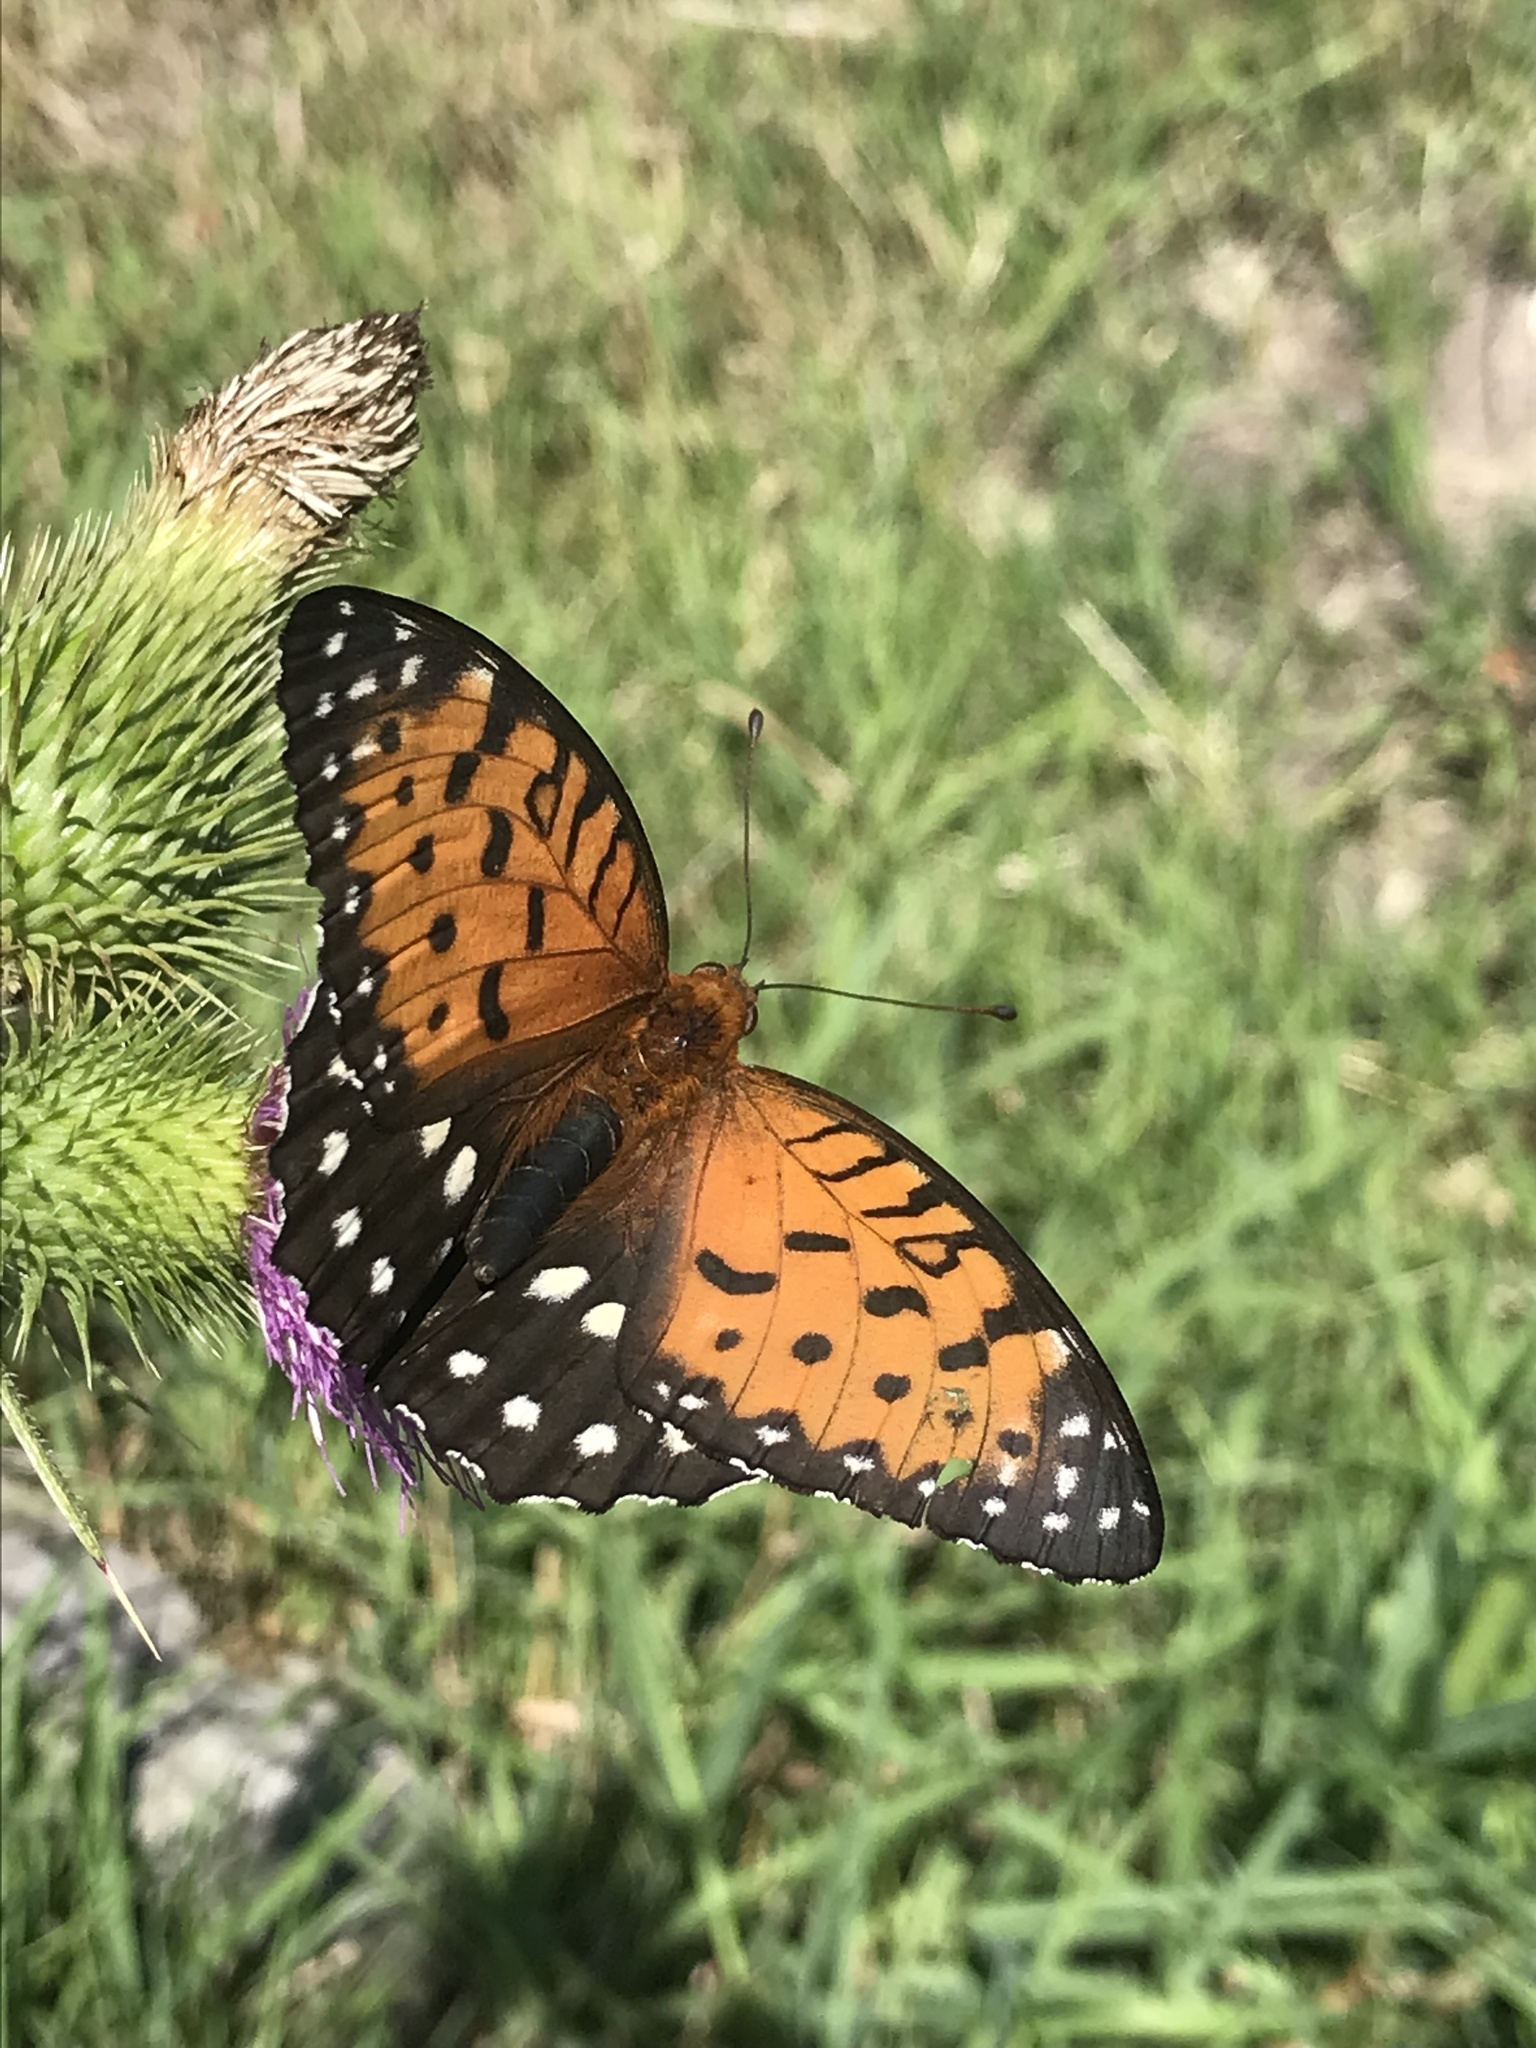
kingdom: Animalia
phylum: Arthropoda
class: Insecta
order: Lepidoptera
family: Nymphalidae
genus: Speyeria
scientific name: Speyeria idalia
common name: Regal fritillary
